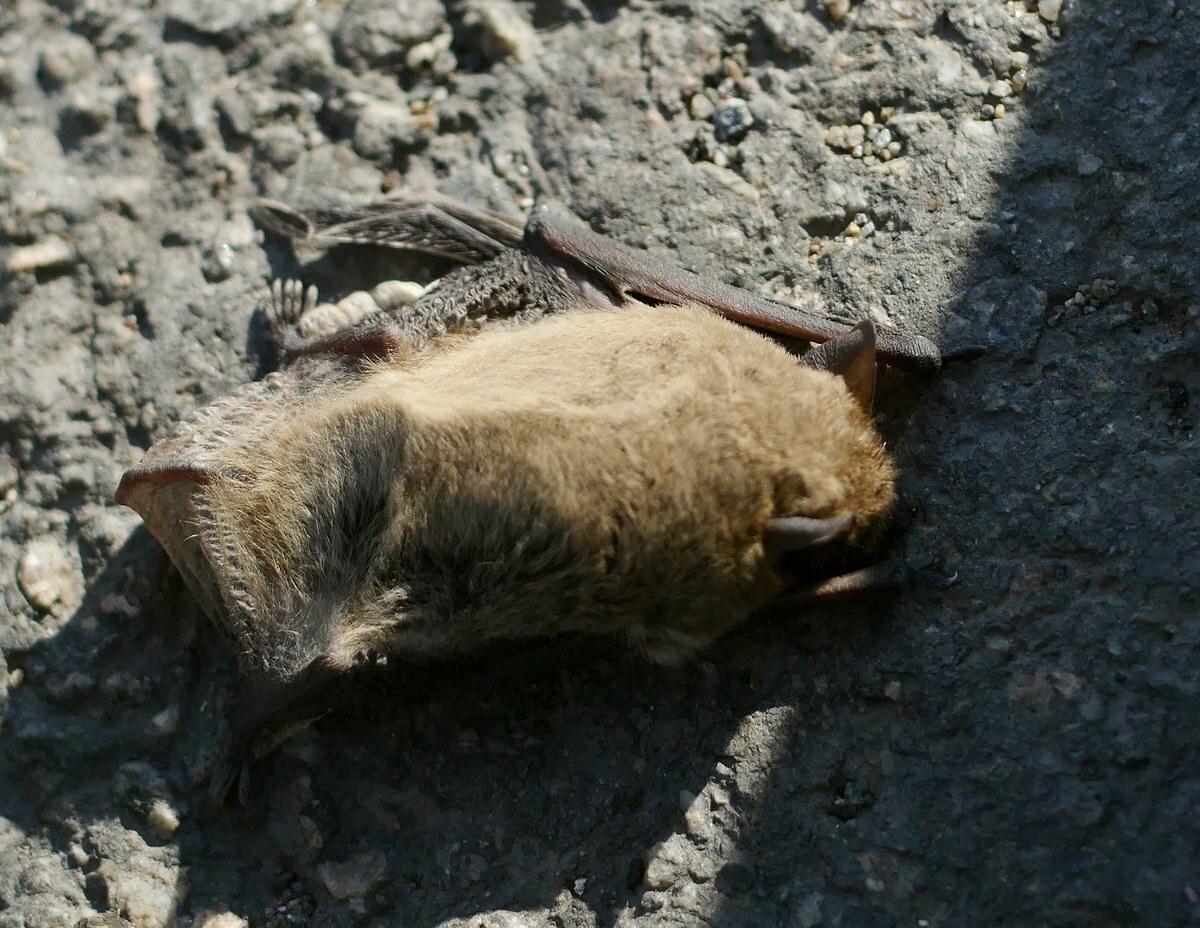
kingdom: Animalia
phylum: Chordata
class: Mammalia
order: Chiroptera
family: Vespertilionidae
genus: Pipistrellus
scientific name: Pipistrellus kuhlii
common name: Kuhl's pipistrelle
